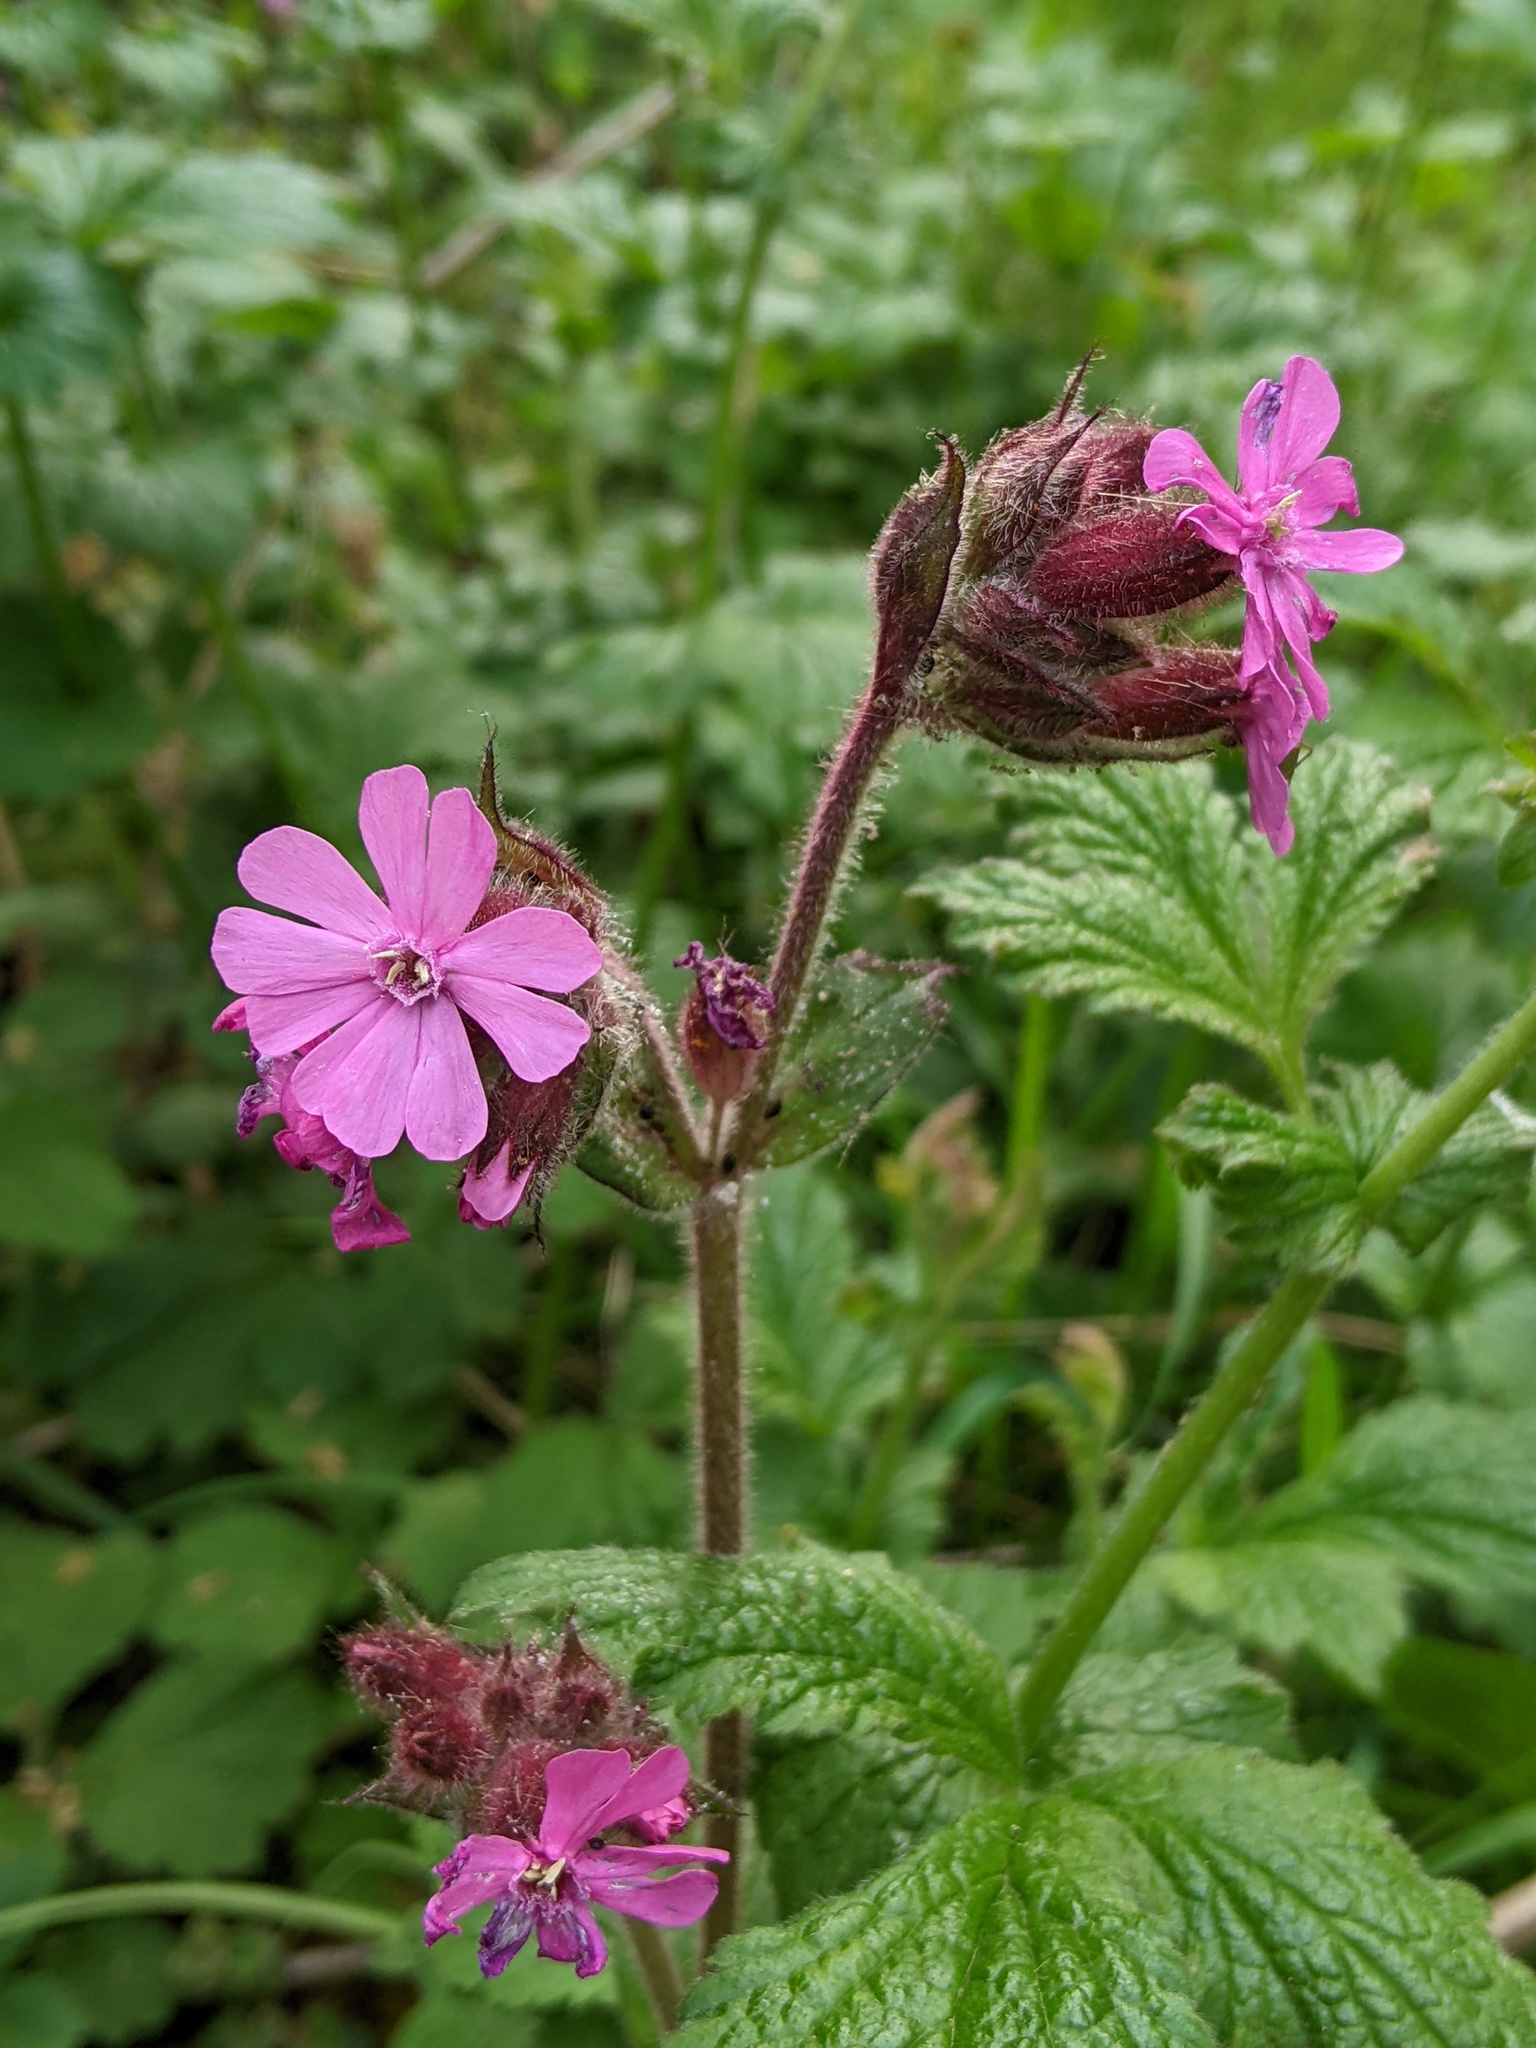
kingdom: Plantae
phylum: Tracheophyta
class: Magnoliopsida
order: Caryophyllales
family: Caryophyllaceae
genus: Silene
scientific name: Silene dioica
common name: Red campion
